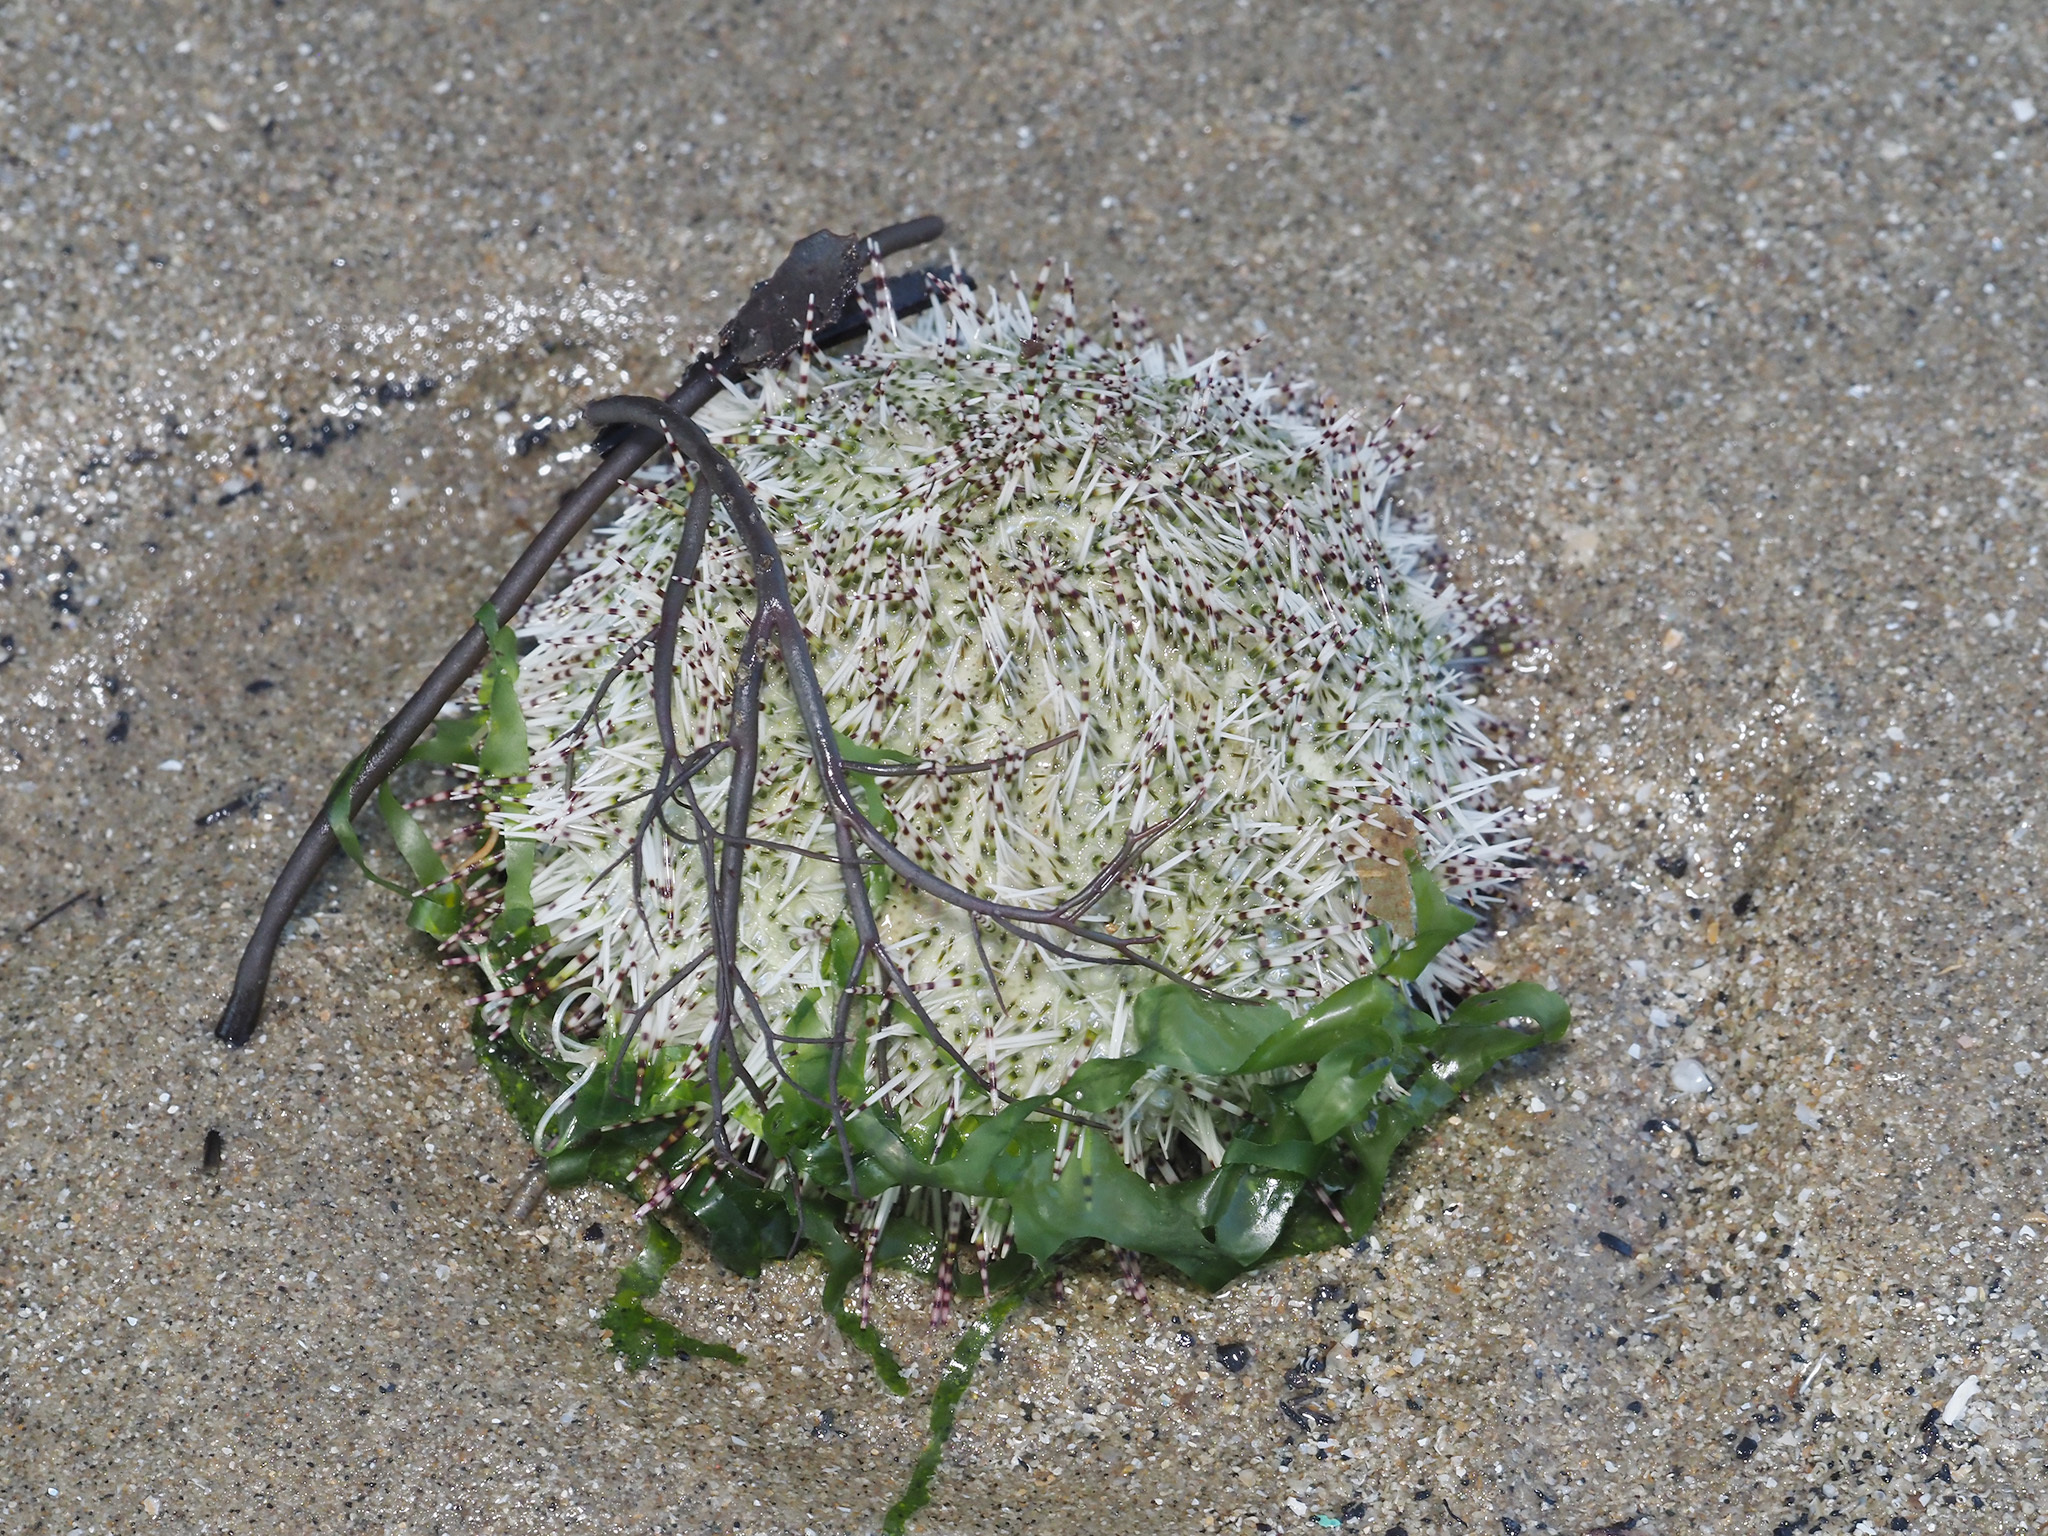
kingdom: Animalia
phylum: Echinodermata
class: Echinoidea
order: Camarodonta
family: Temnopleuridae
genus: Salmacis
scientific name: Salmacis sphaeroides
